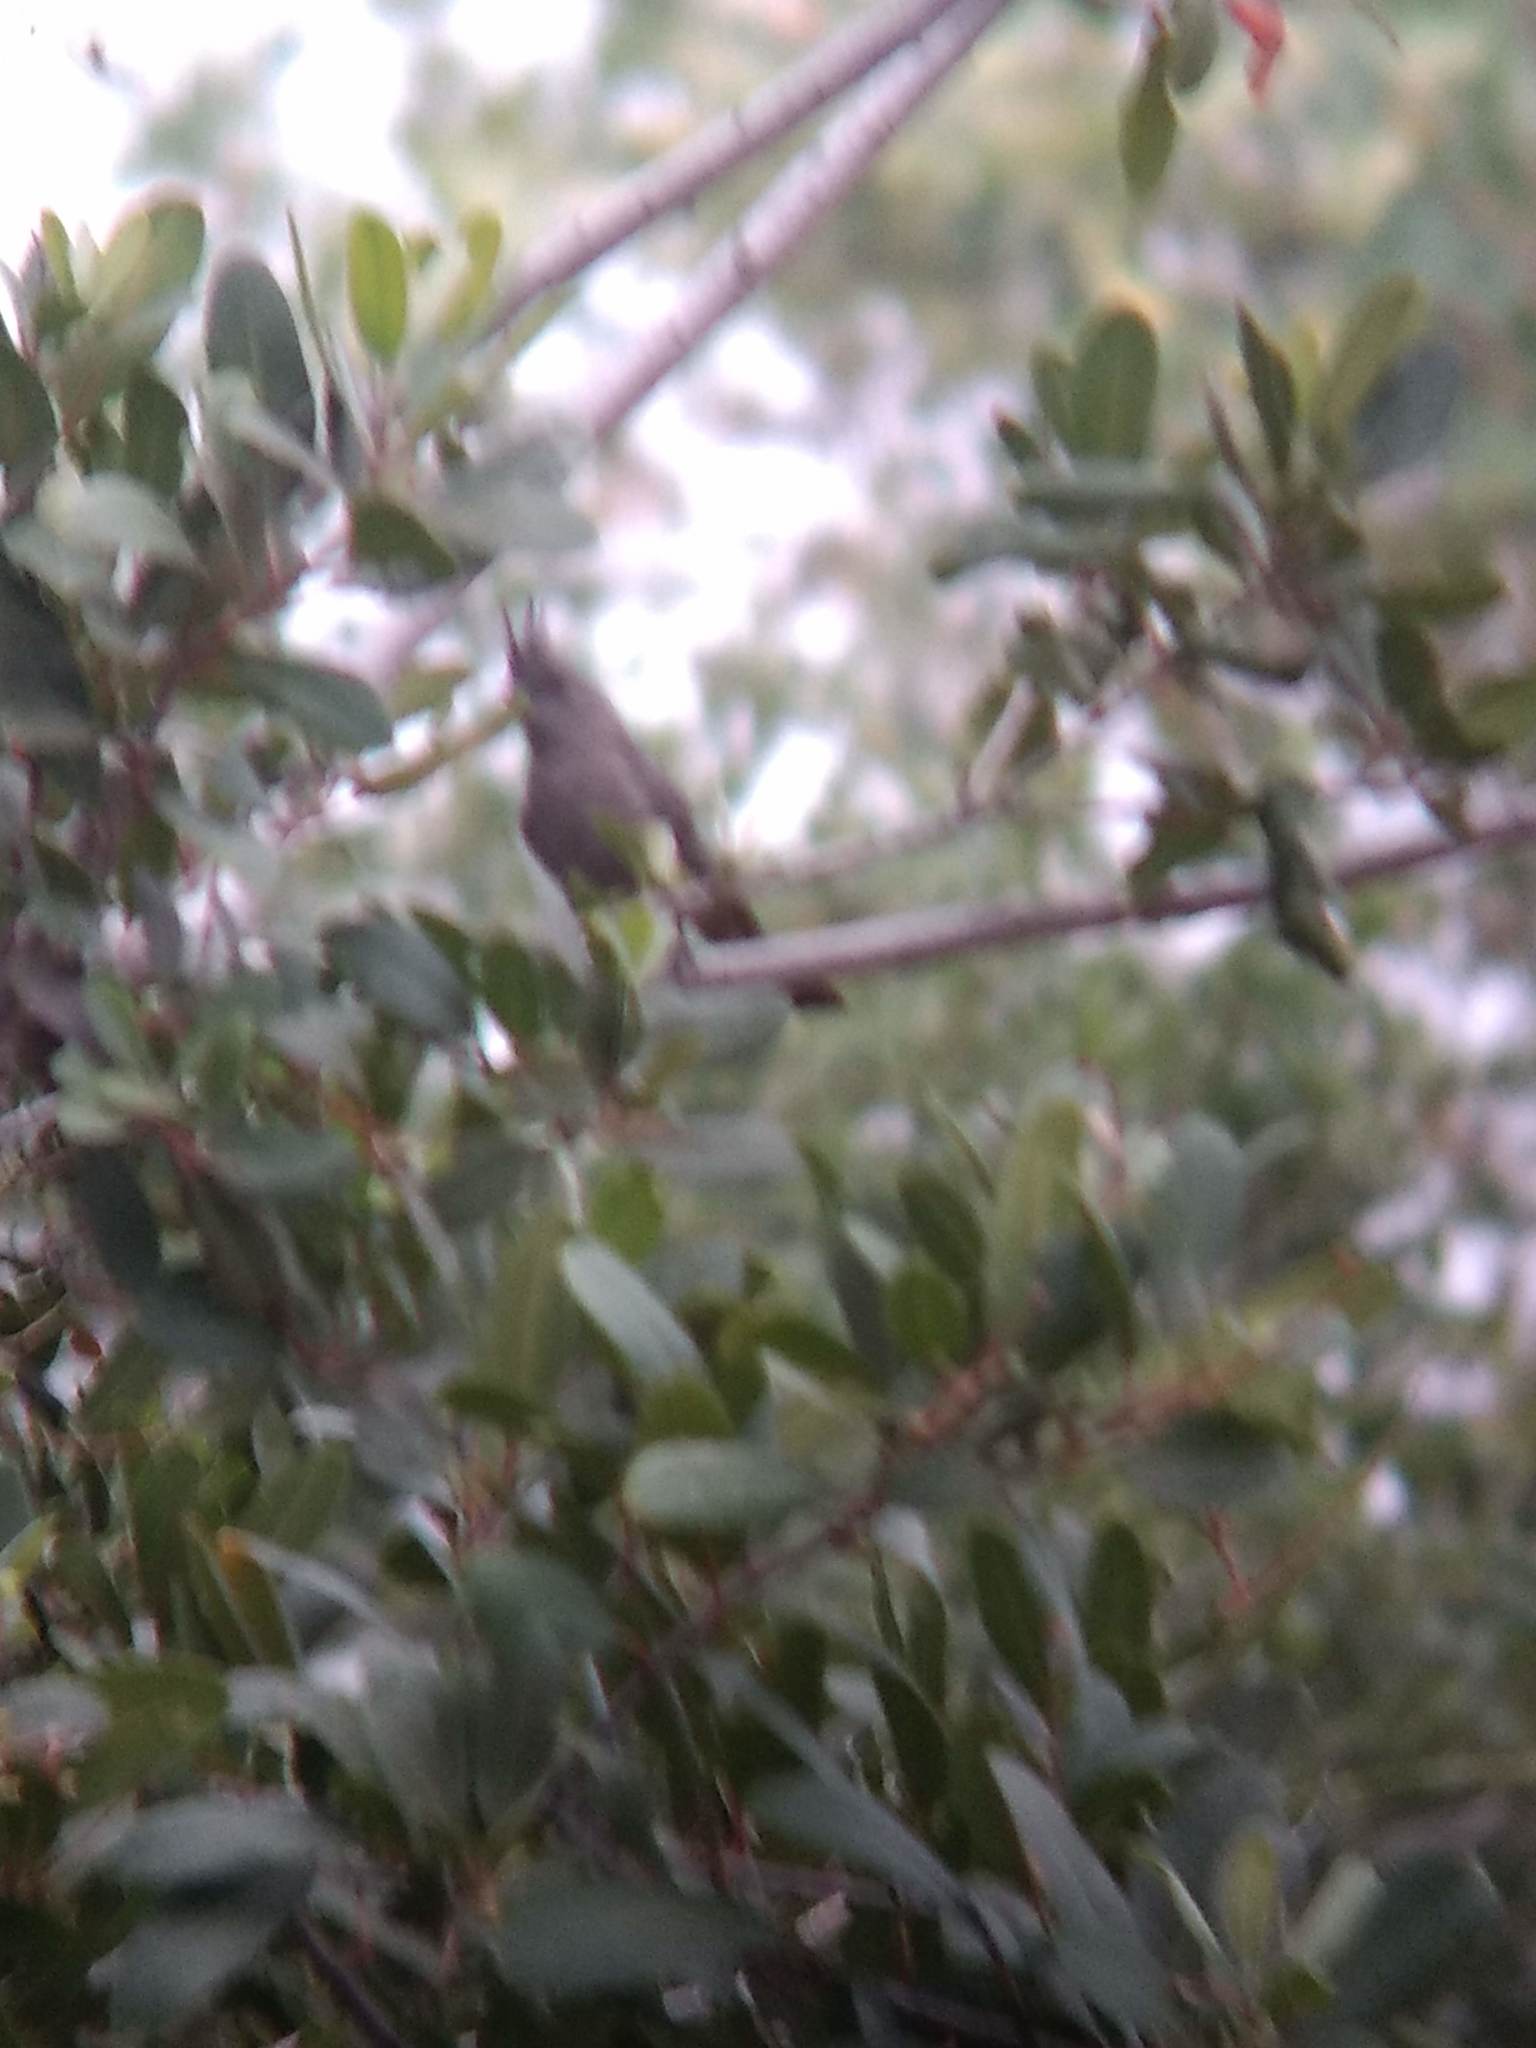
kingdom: Animalia
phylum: Chordata
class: Aves
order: Passeriformes
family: Ptilogonatidae
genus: Phainopepla
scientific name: Phainopepla nitens
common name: Phainopepla
